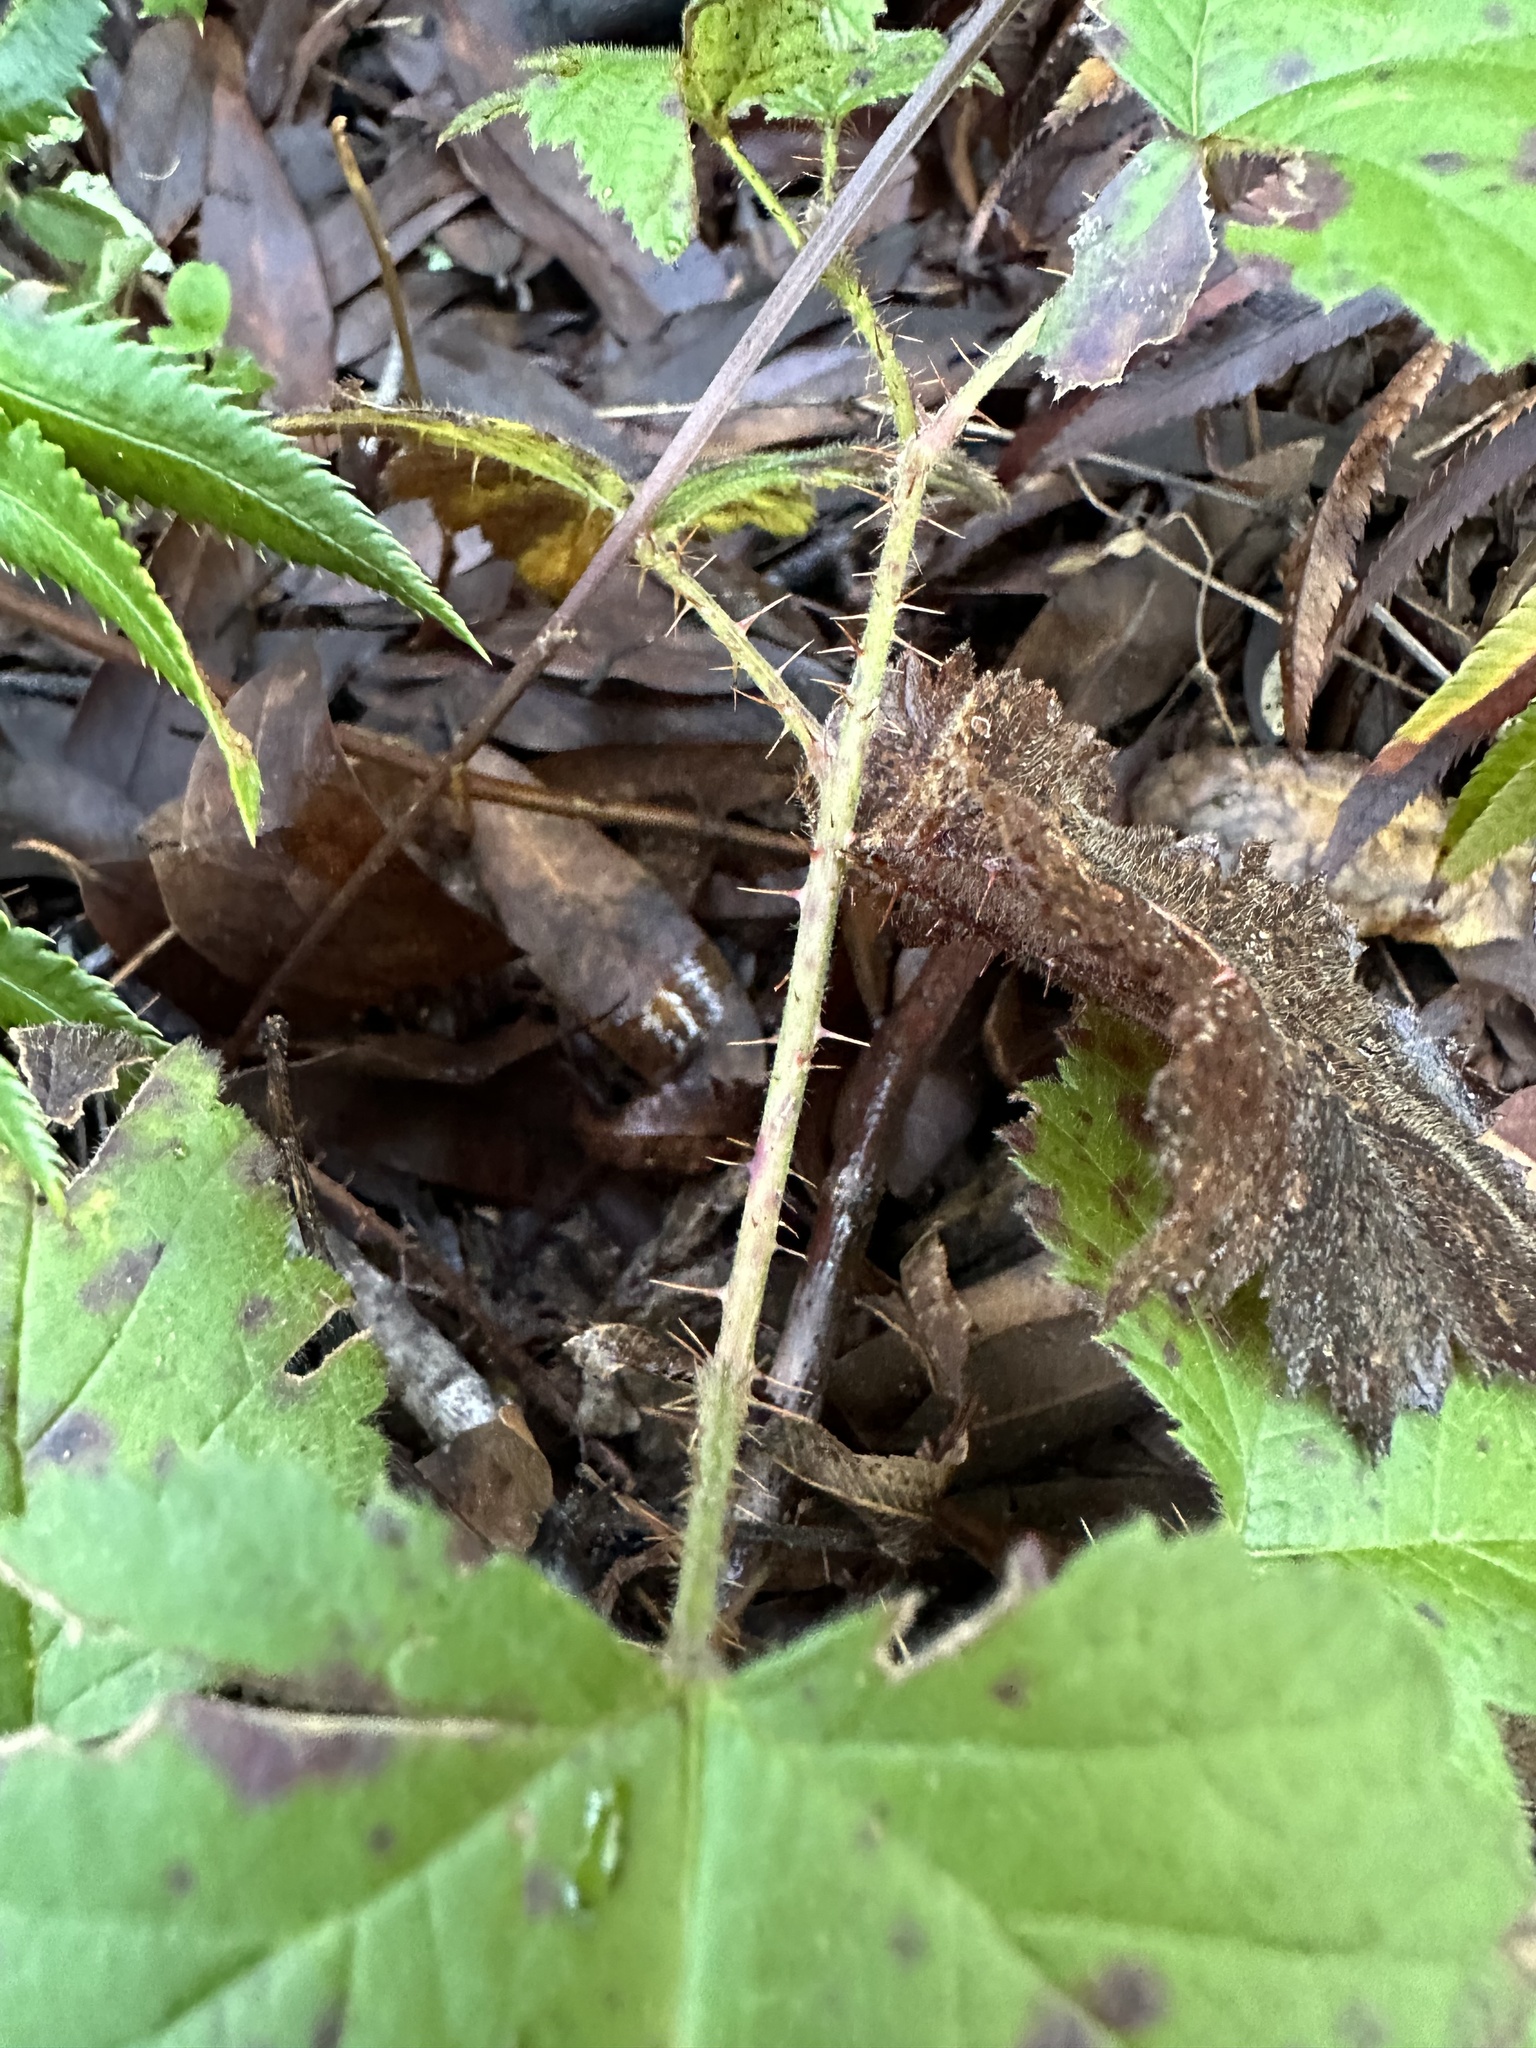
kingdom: Plantae
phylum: Tracheophyta
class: Magnoliopsida
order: Rosales
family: Rosaceae
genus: Rubus
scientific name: Rubus ursinus
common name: Pacific blackberry
